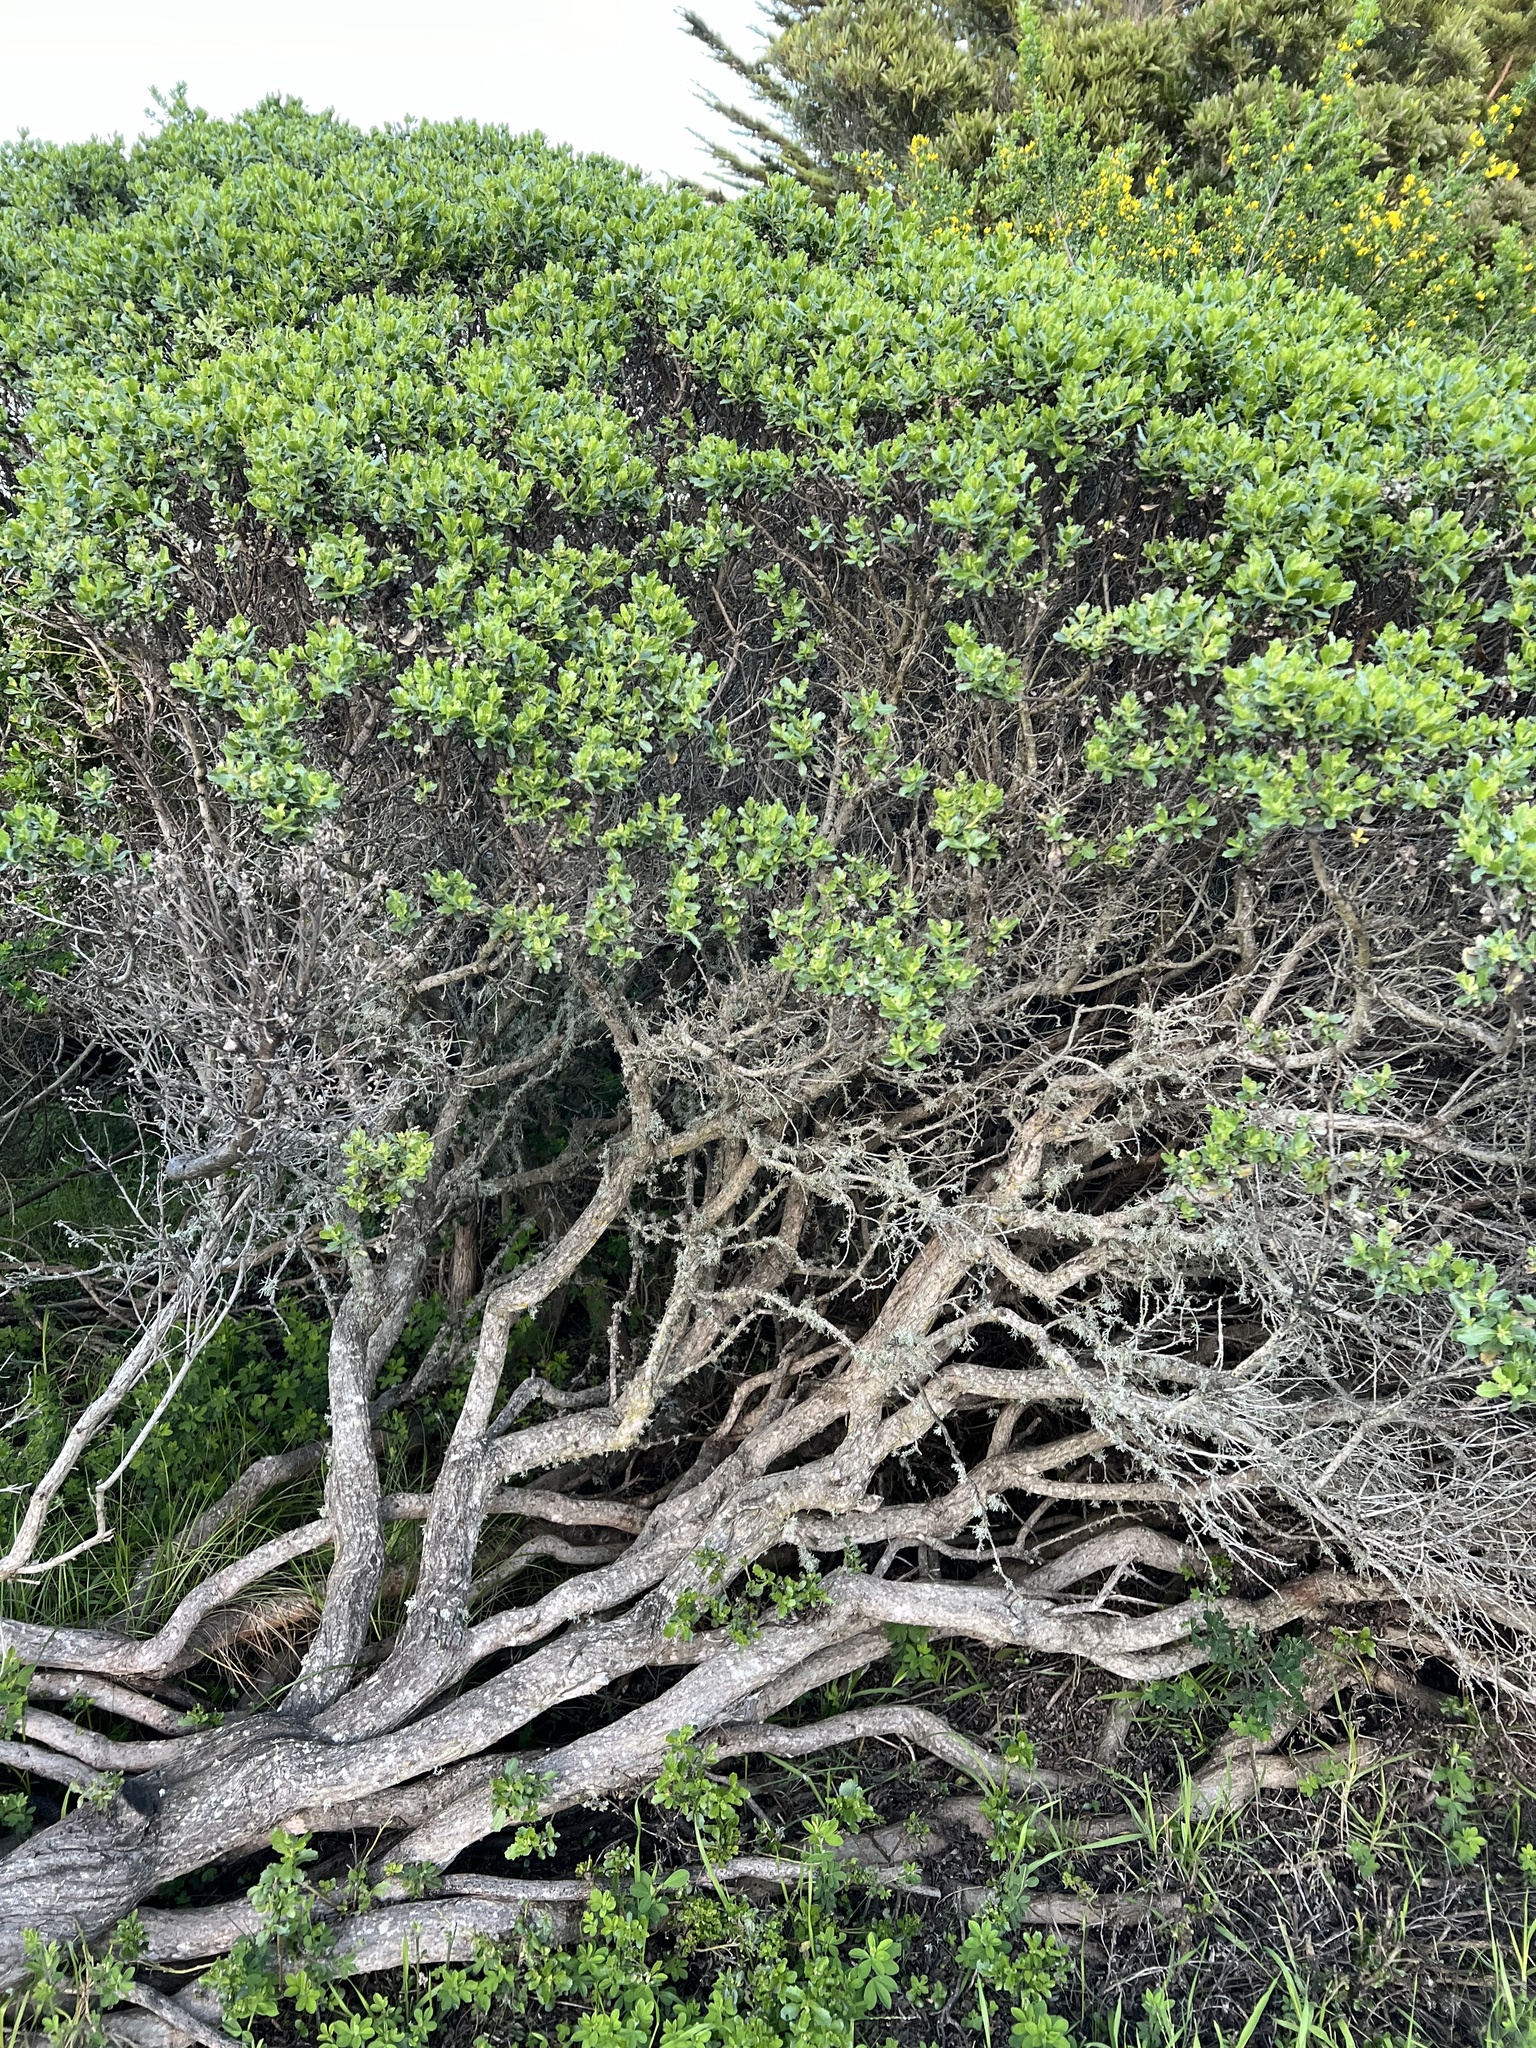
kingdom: Plantae
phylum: Tracheophyta
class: Magnoliopsida
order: Asterales
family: Asteraceae
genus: Baccharis
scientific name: Baccharis pilularis
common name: Coyotebrush
